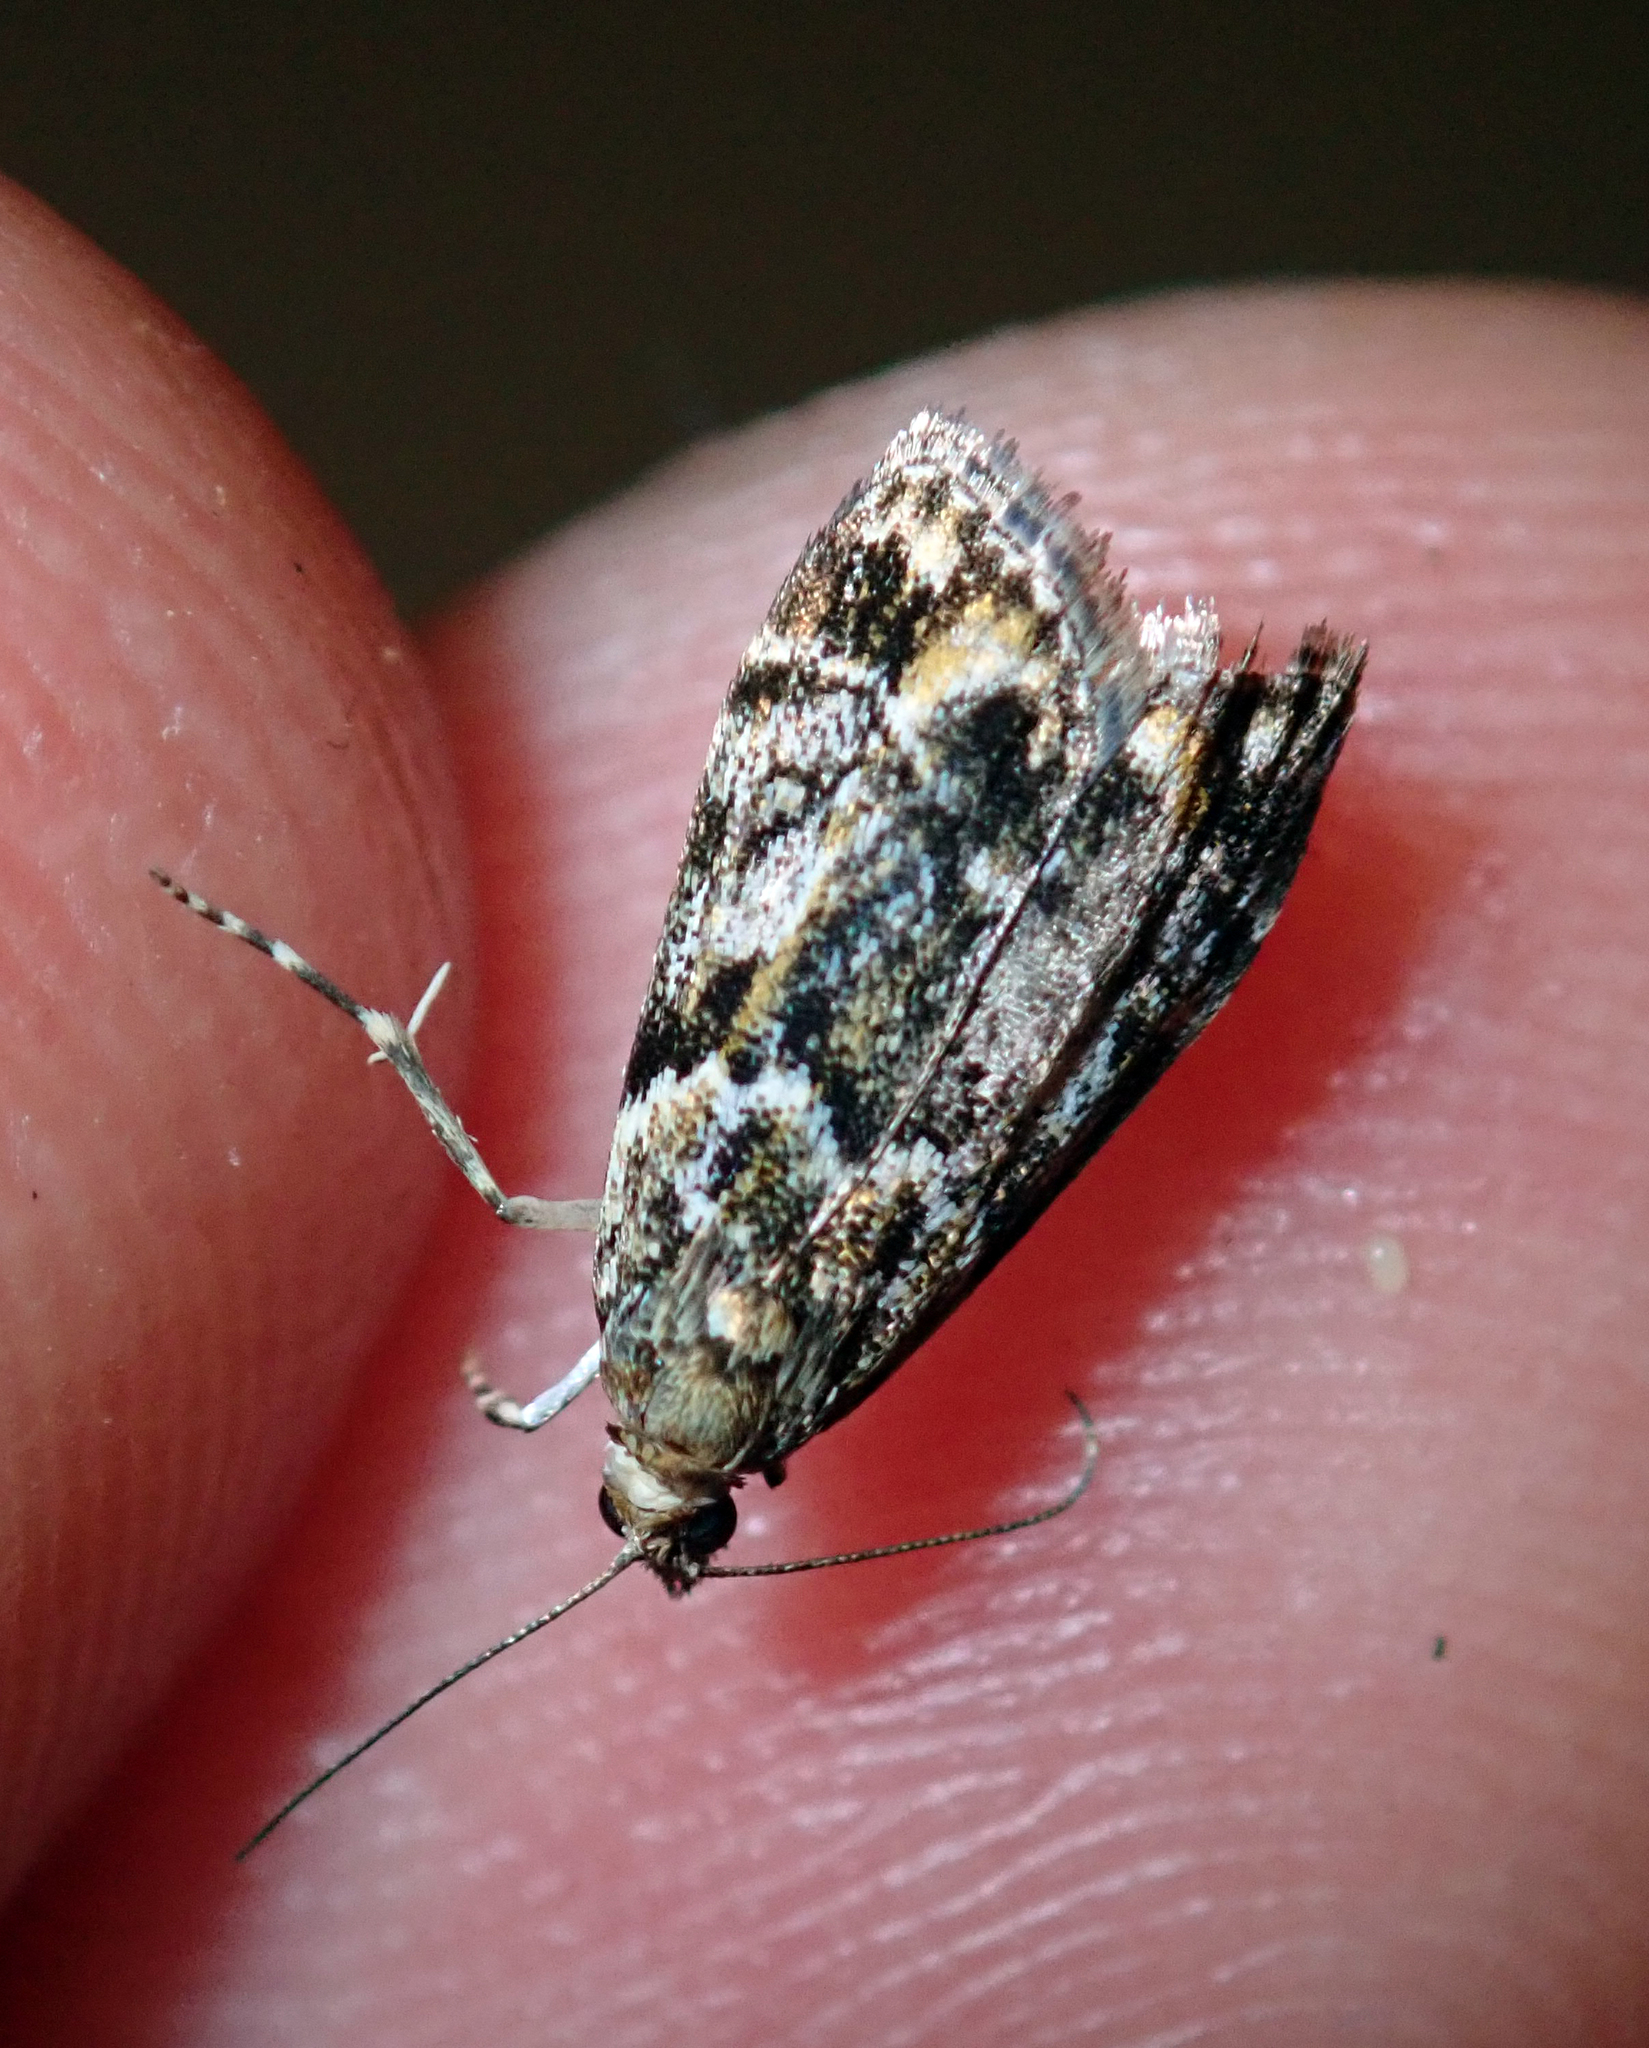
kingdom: Animalia
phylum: Arthropoda
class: Insecta
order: Lepidoptera
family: Crambidae
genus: Eudonia
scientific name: Eudonia minualis
